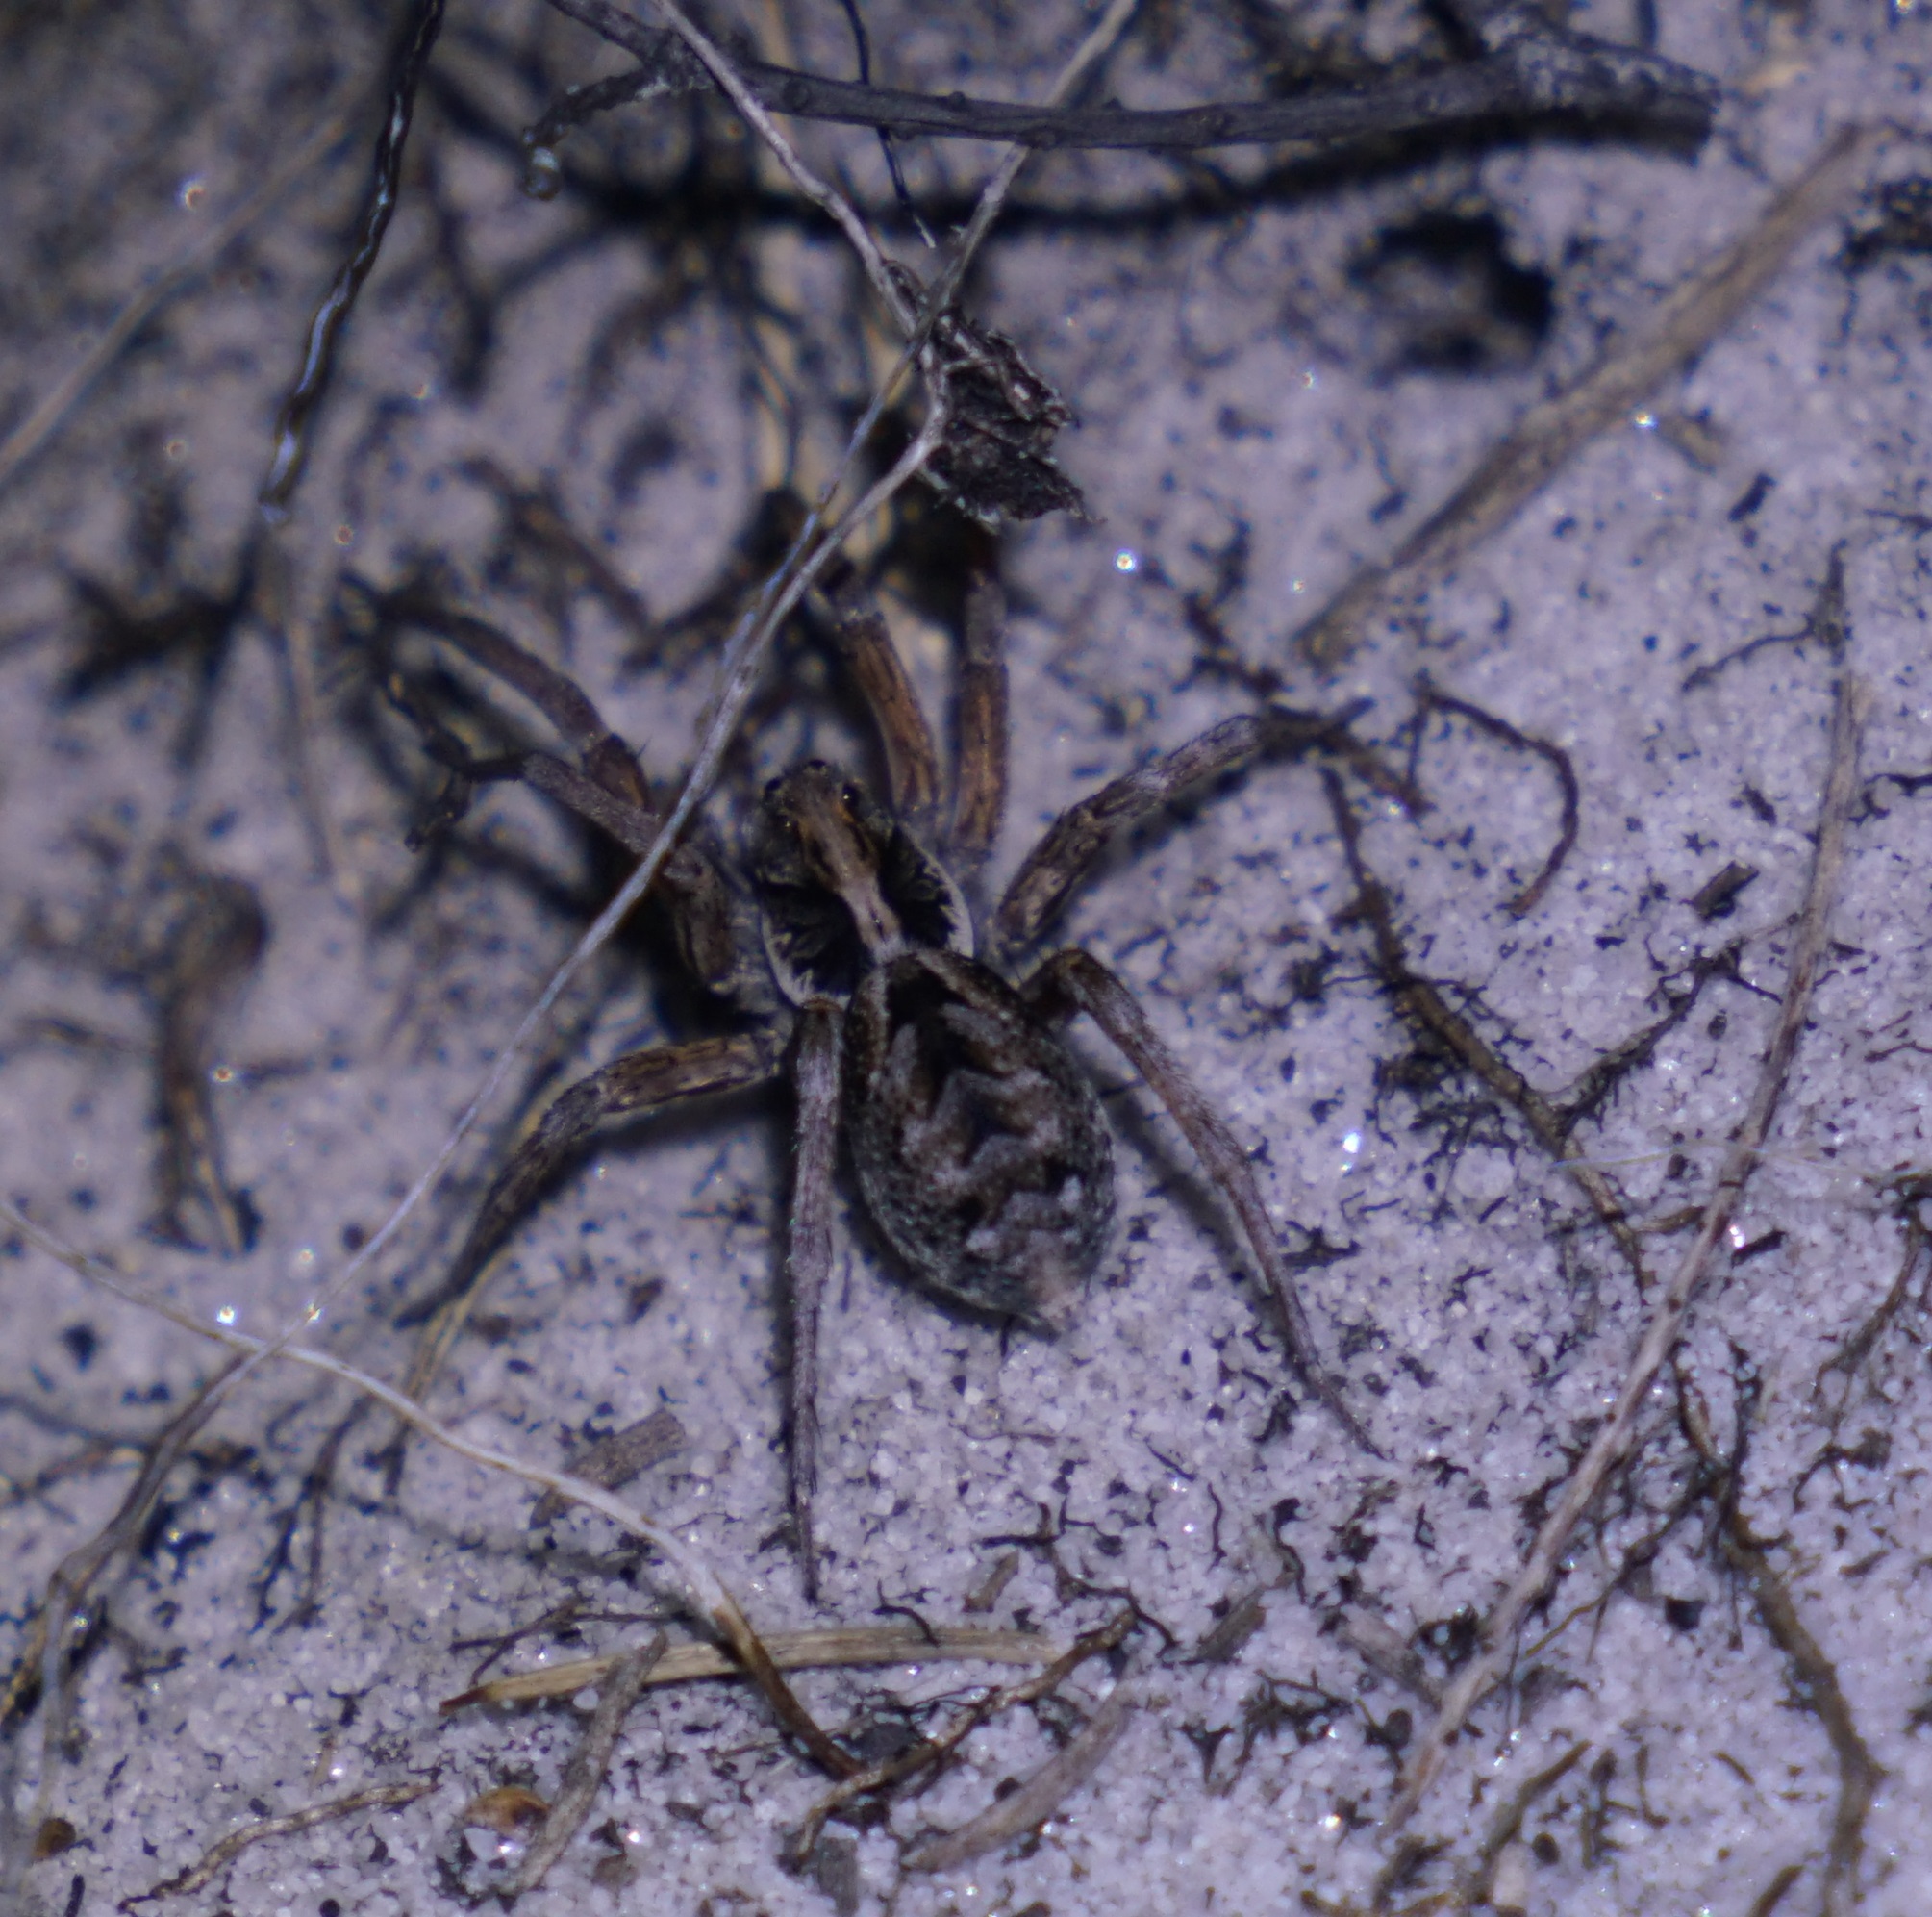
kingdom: Animalia
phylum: Arthropoda
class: Arachnida
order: Araneae
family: Lycosidae
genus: Venator
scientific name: Venator spenceri
